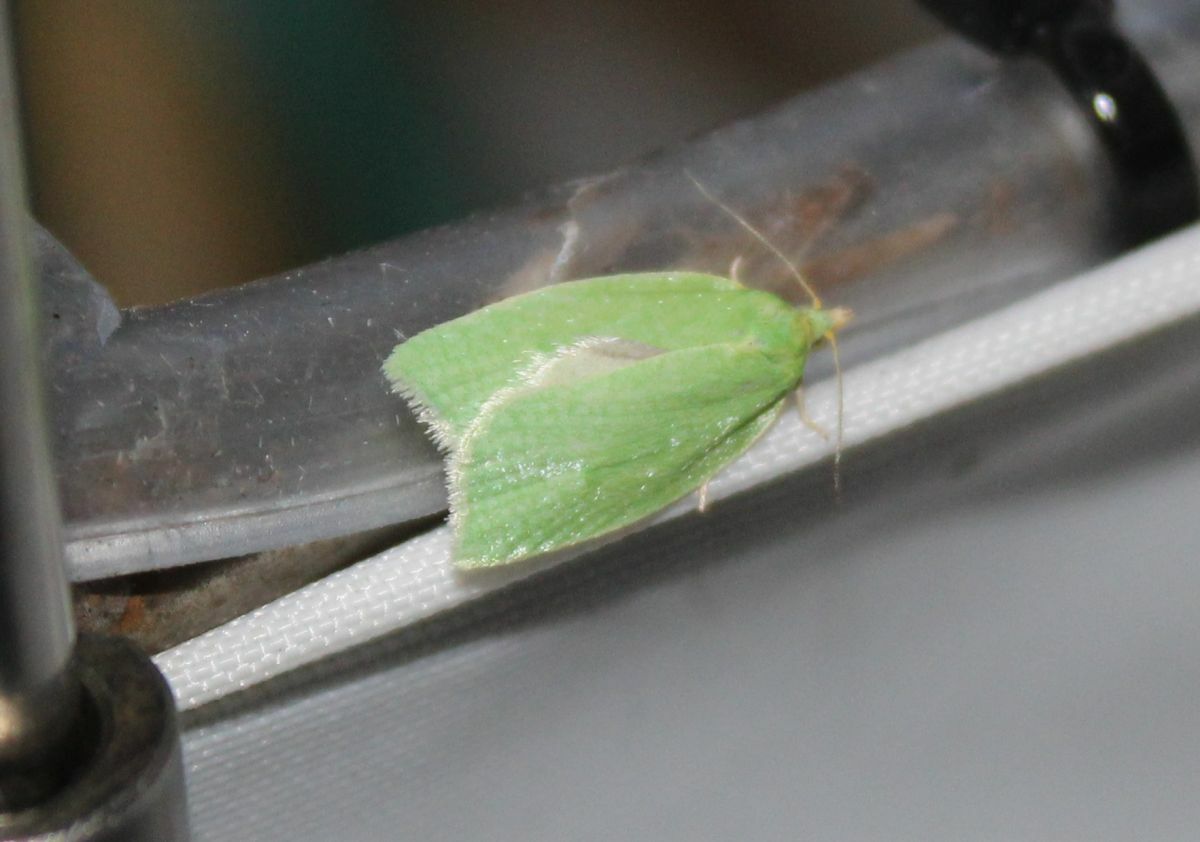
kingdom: Animalia
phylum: Arthropoda
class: Insecta
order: Lepidoptera
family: Tortricidae
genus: Tortrix
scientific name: Tortrix viridana
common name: Green oak tortrix
